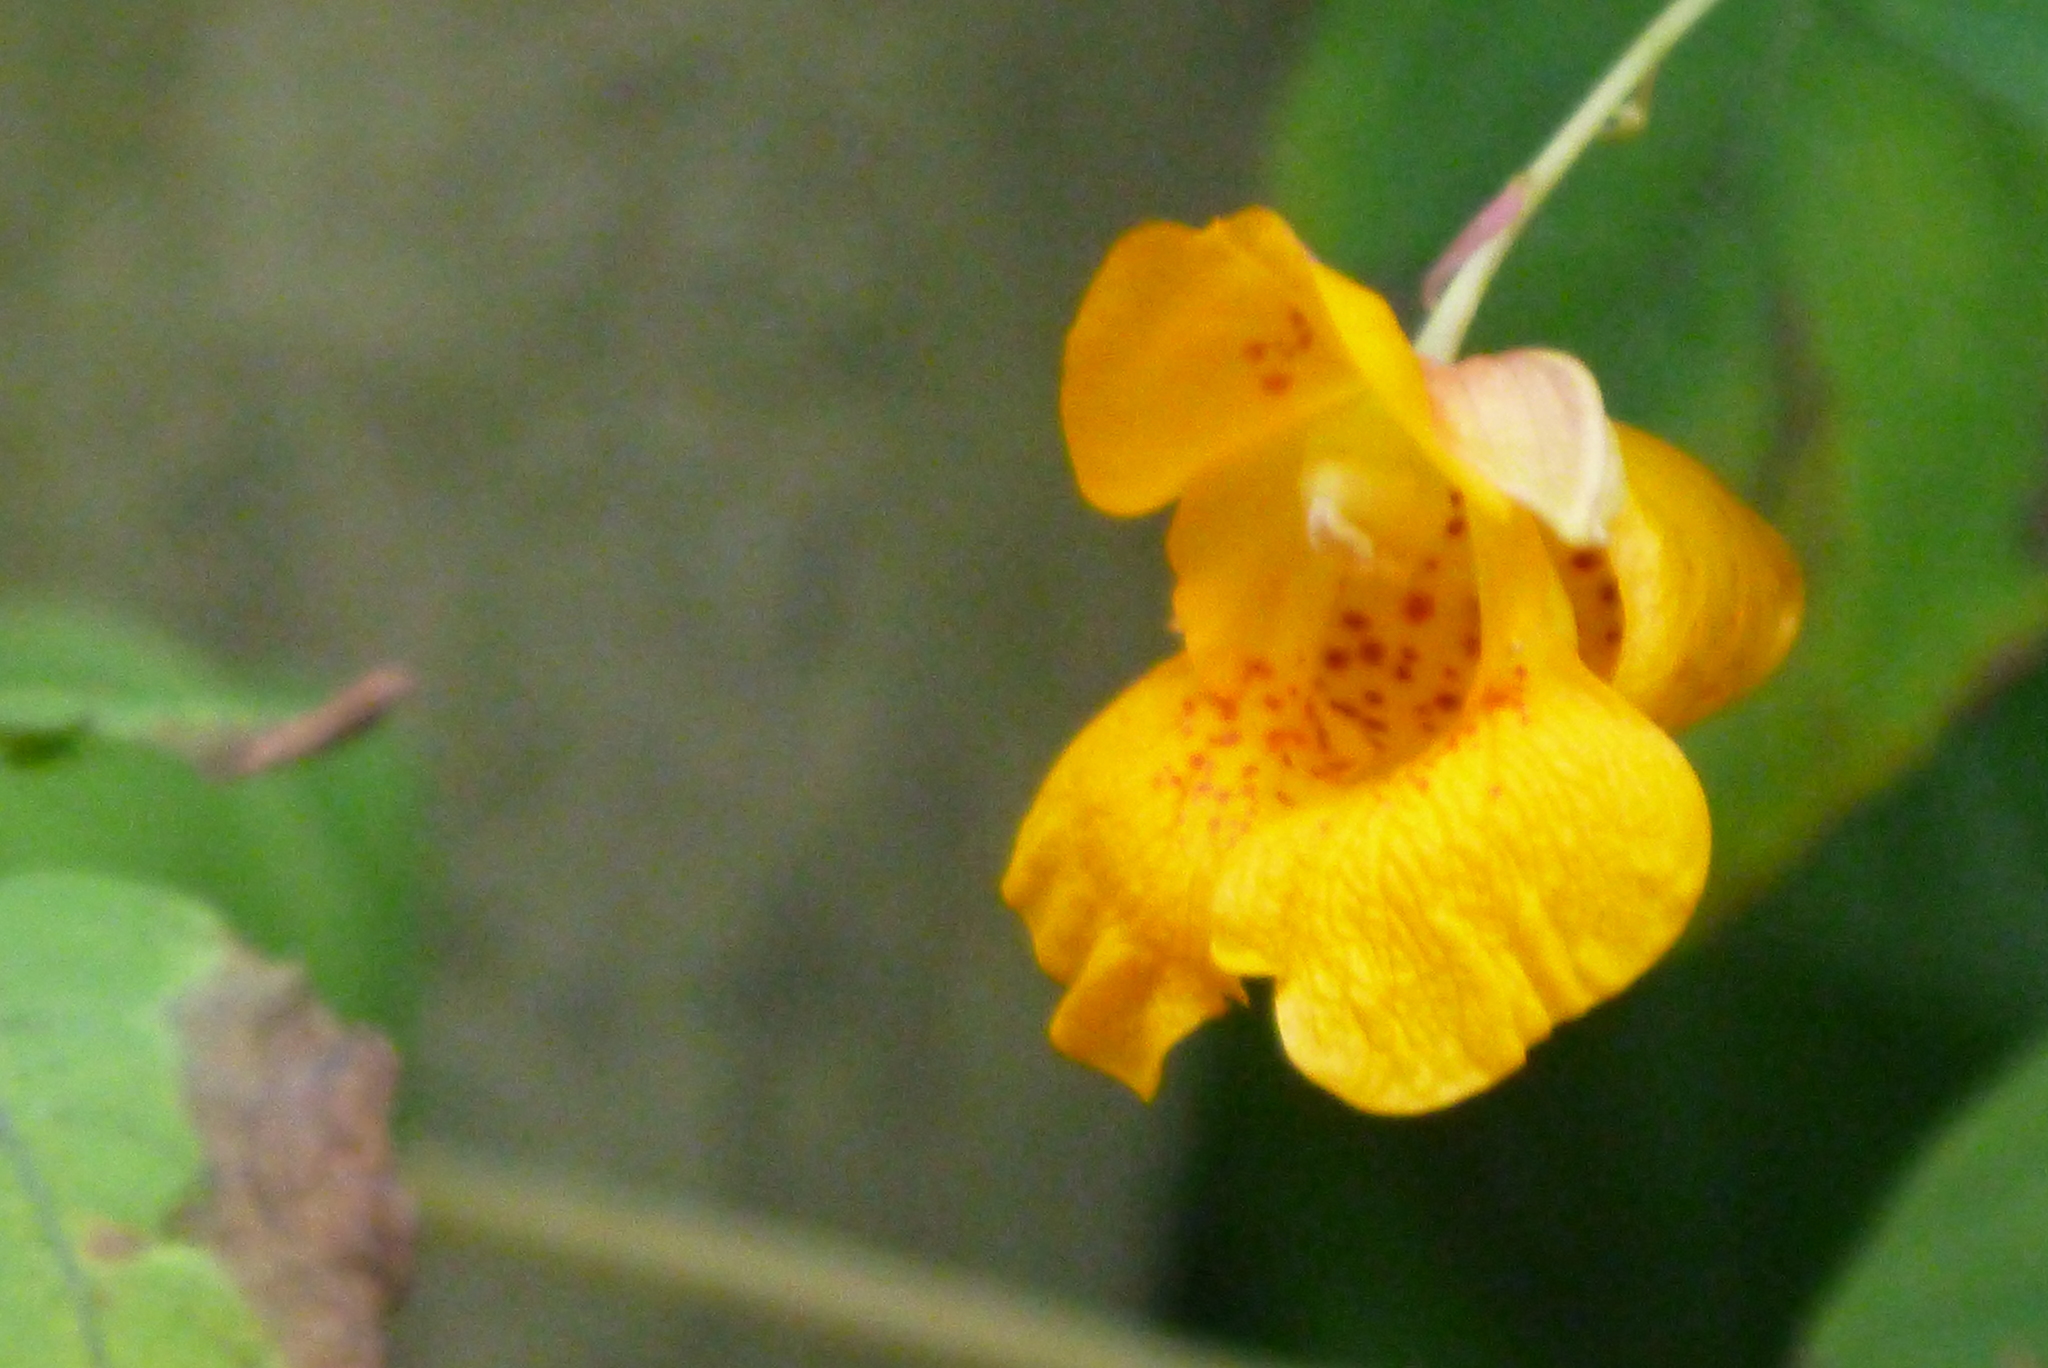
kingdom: Plantae
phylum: Tracheophyta
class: Magnoliopsida
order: Ericales
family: Balsaminaceae
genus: Impatiens
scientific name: Impatiens capensis
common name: Orange balsam
